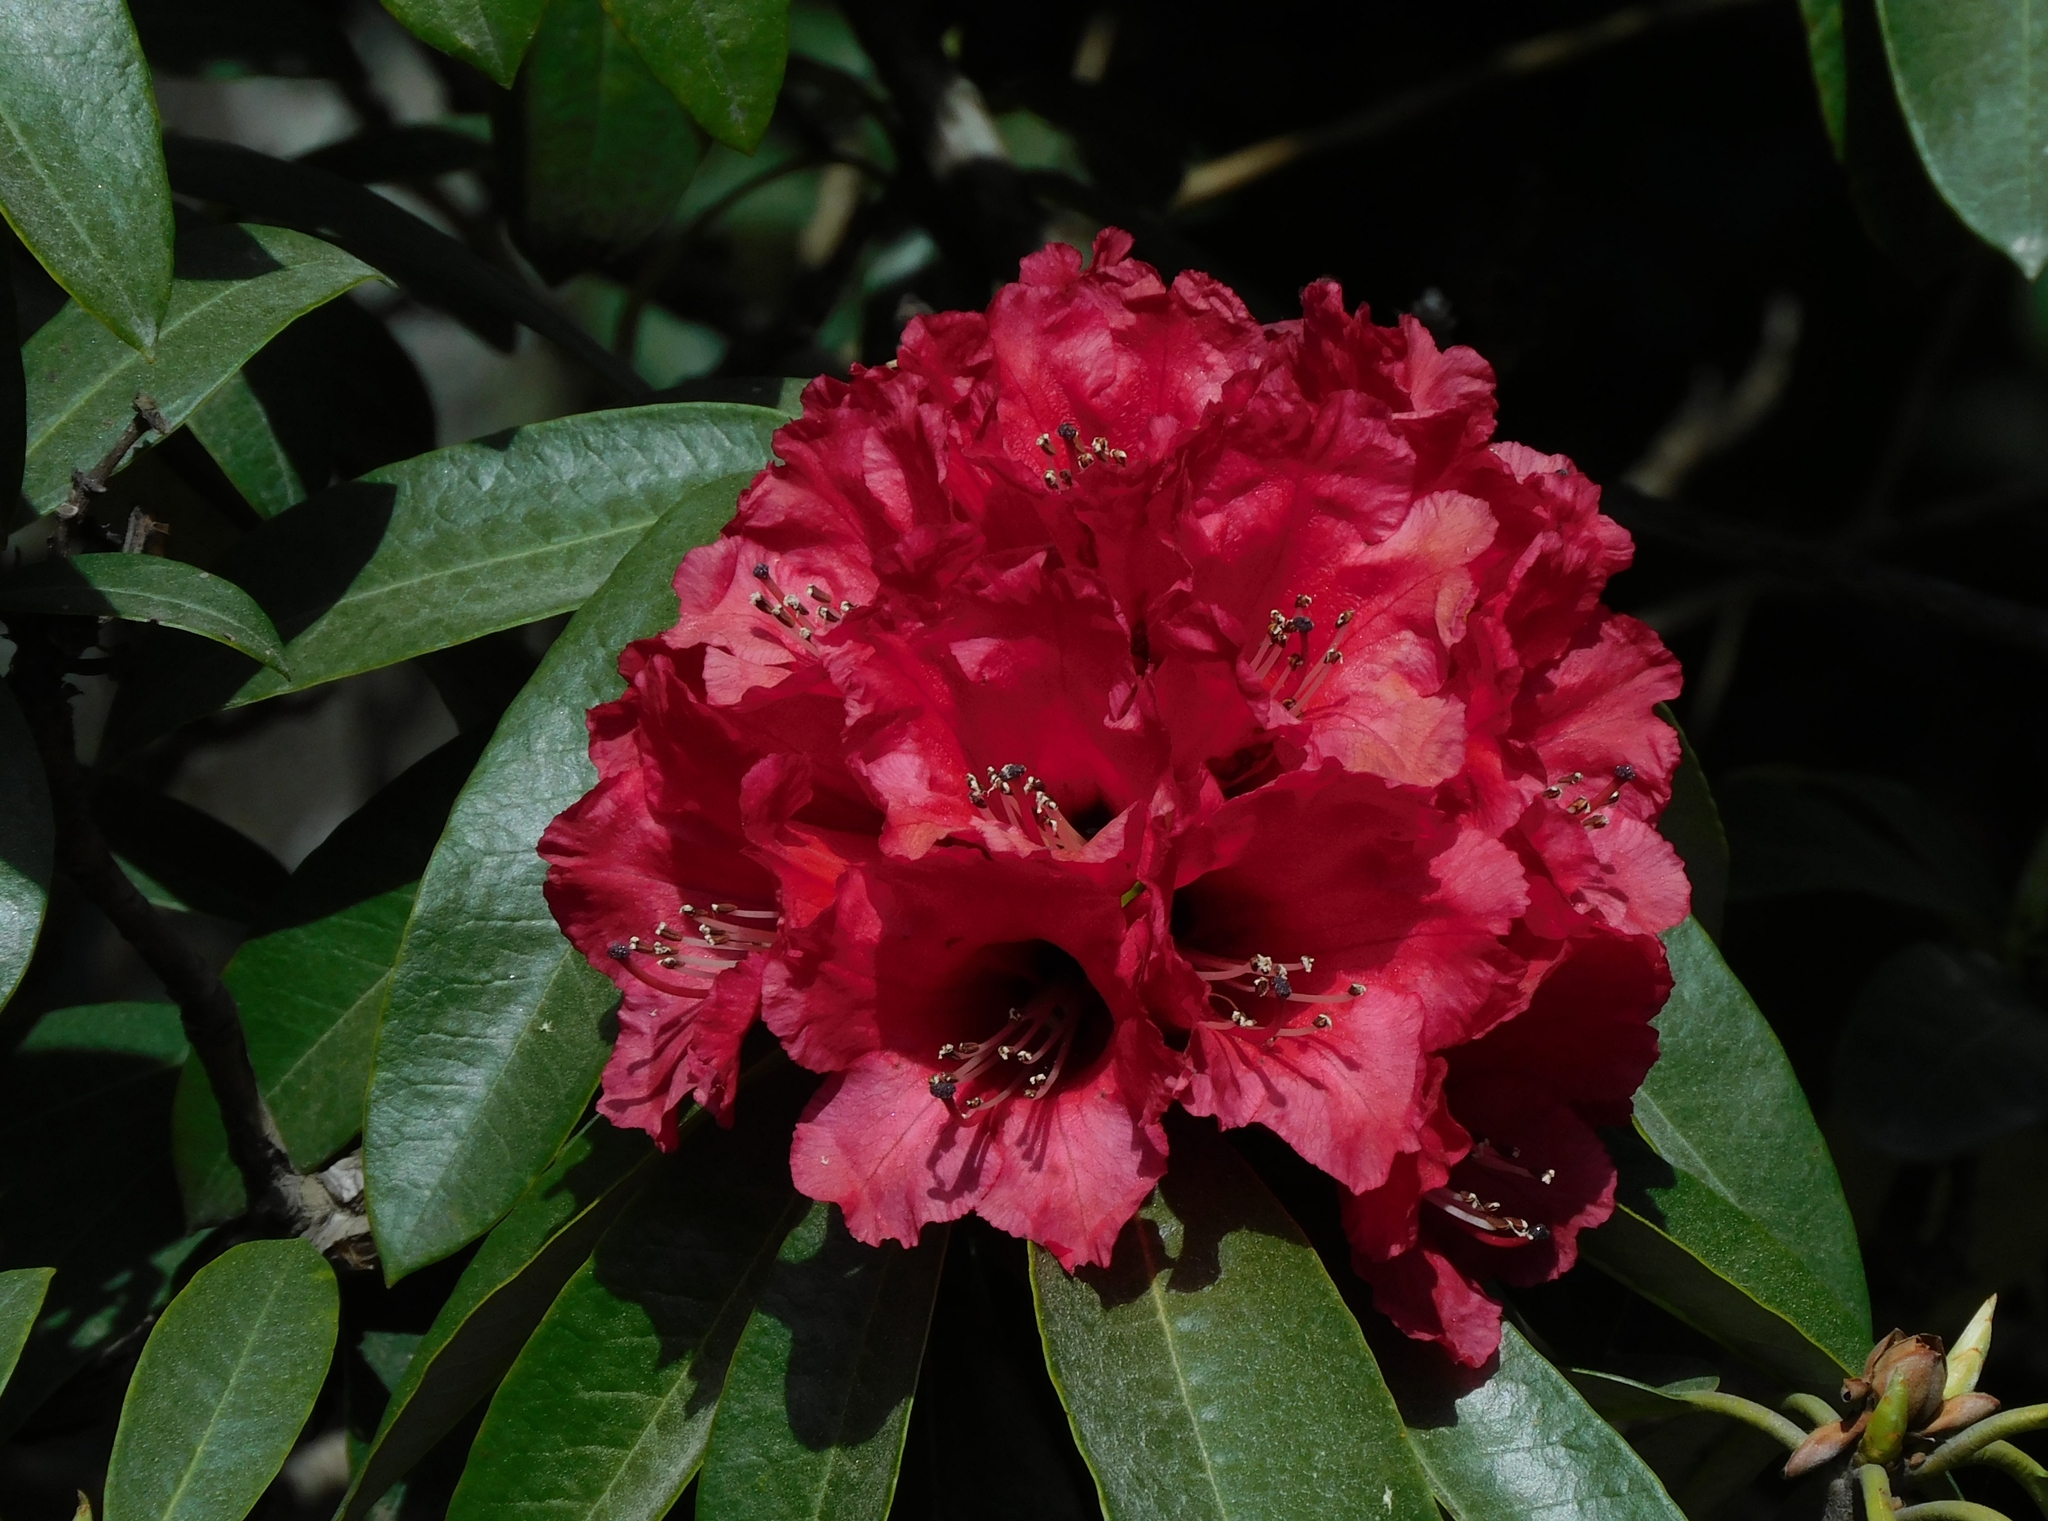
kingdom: Plantae
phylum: Tracheophyta
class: Magnoliopsida
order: Ericales
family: Ericaceae
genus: Rhododendron
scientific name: Rhododendron arboreum
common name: Tree rhododendron
